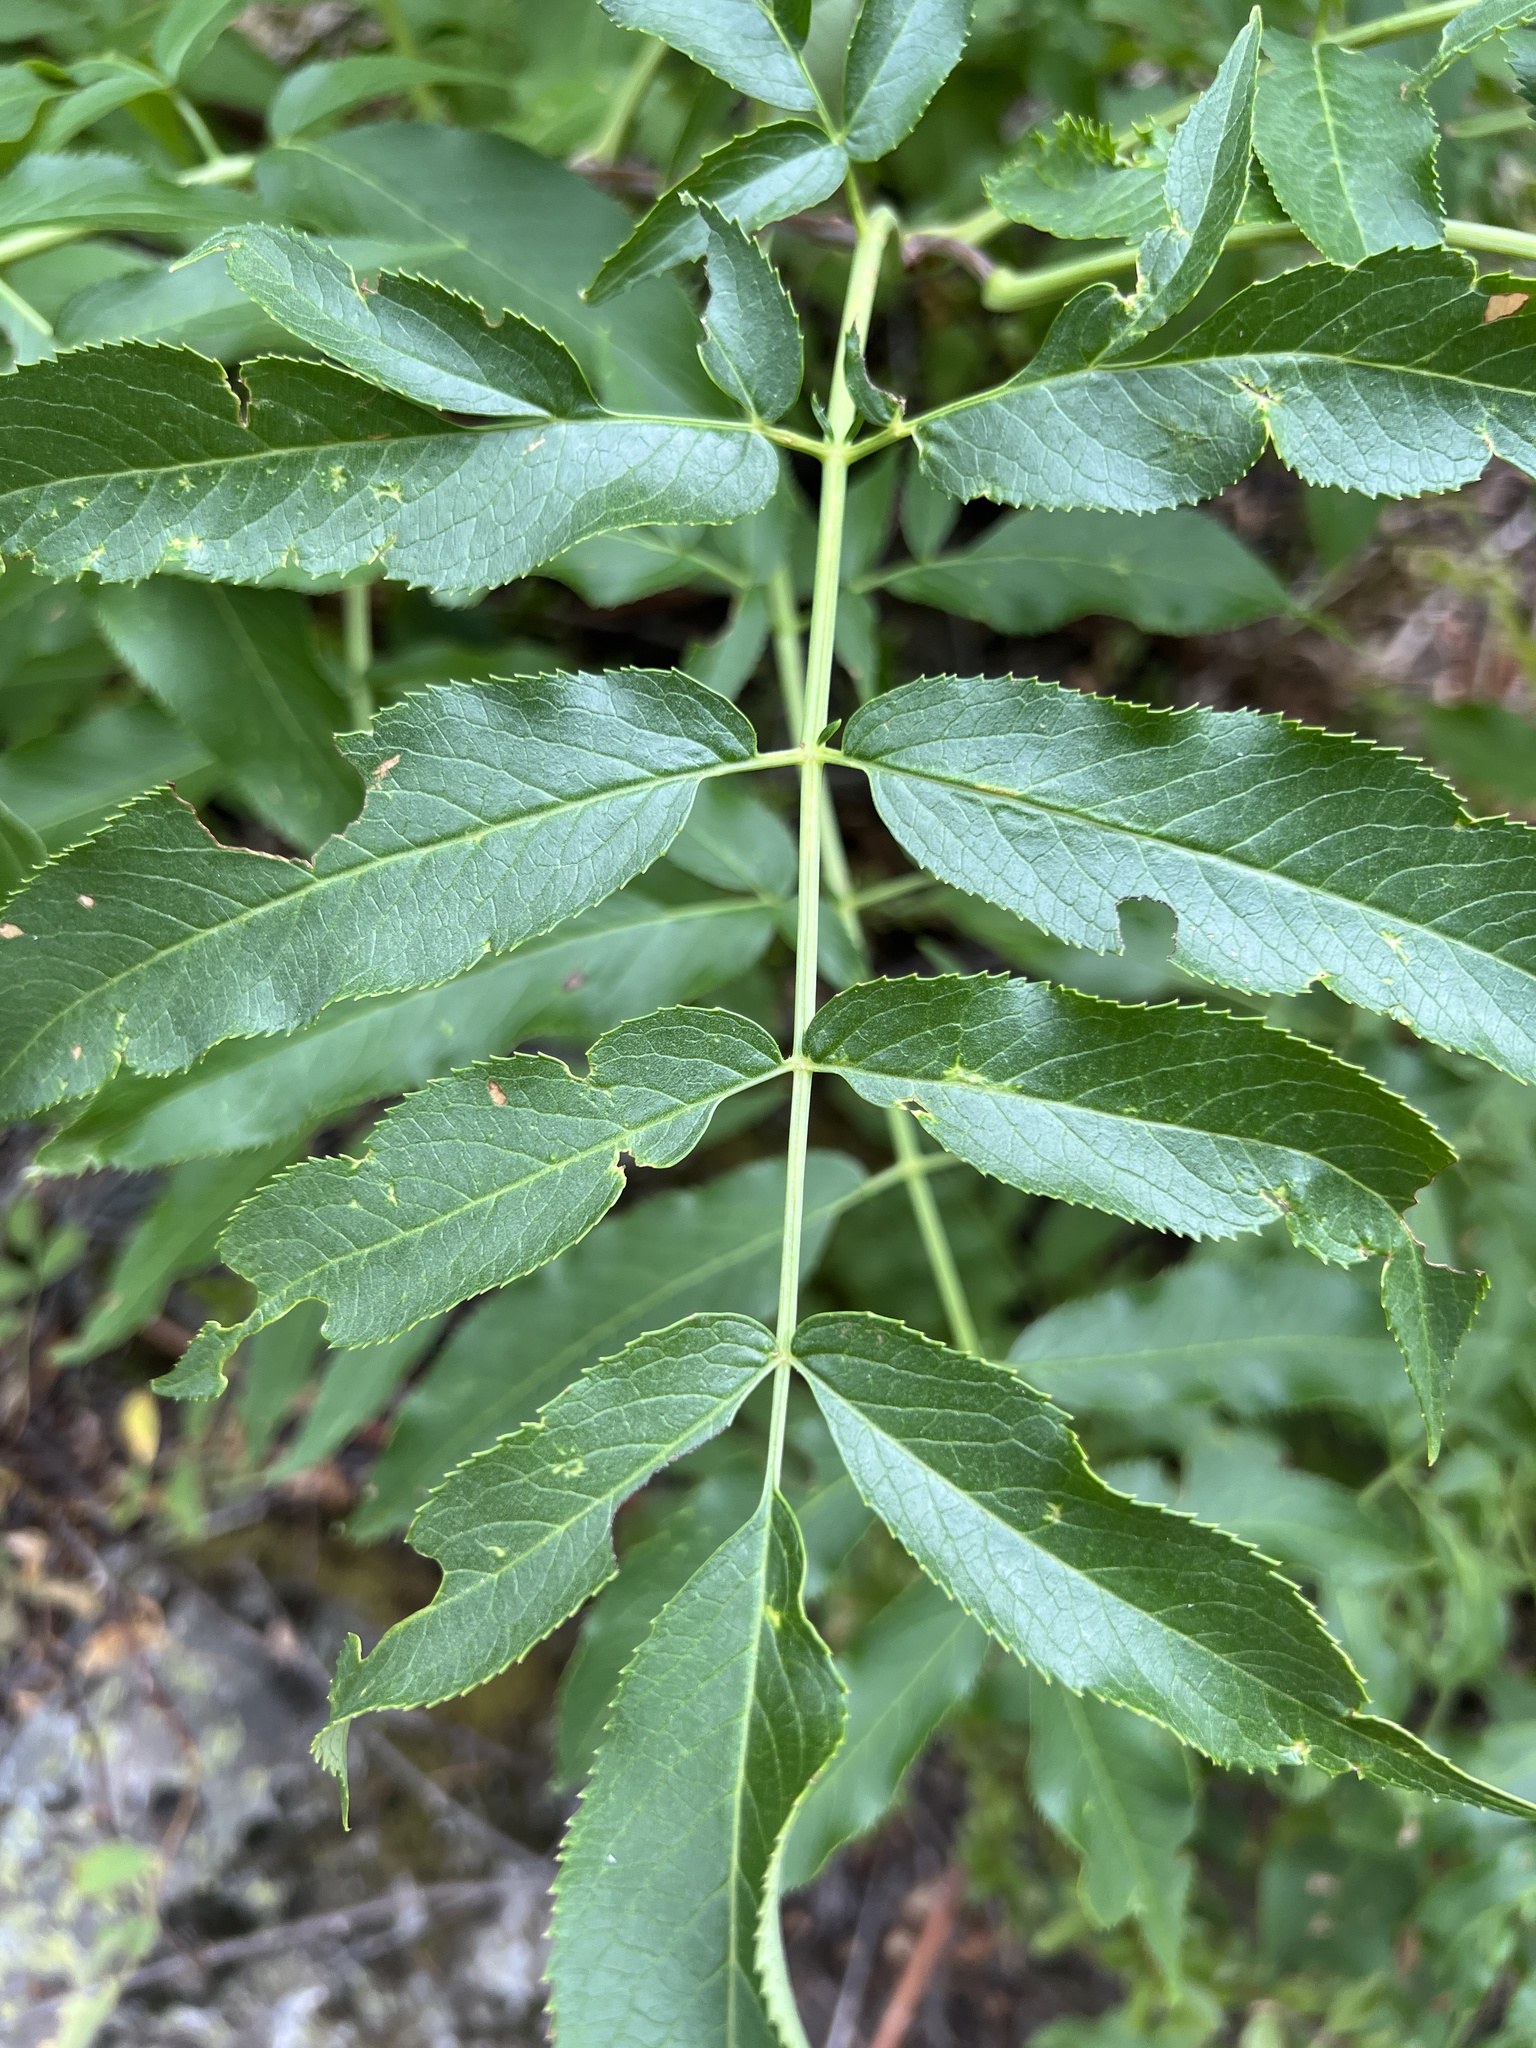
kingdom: Plantae
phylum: Tracheophyta
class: Magnoliopsida
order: Dipsacales
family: Viburnaceae
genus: Sambucus
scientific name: Sambucus cerulea
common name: Blue elder
